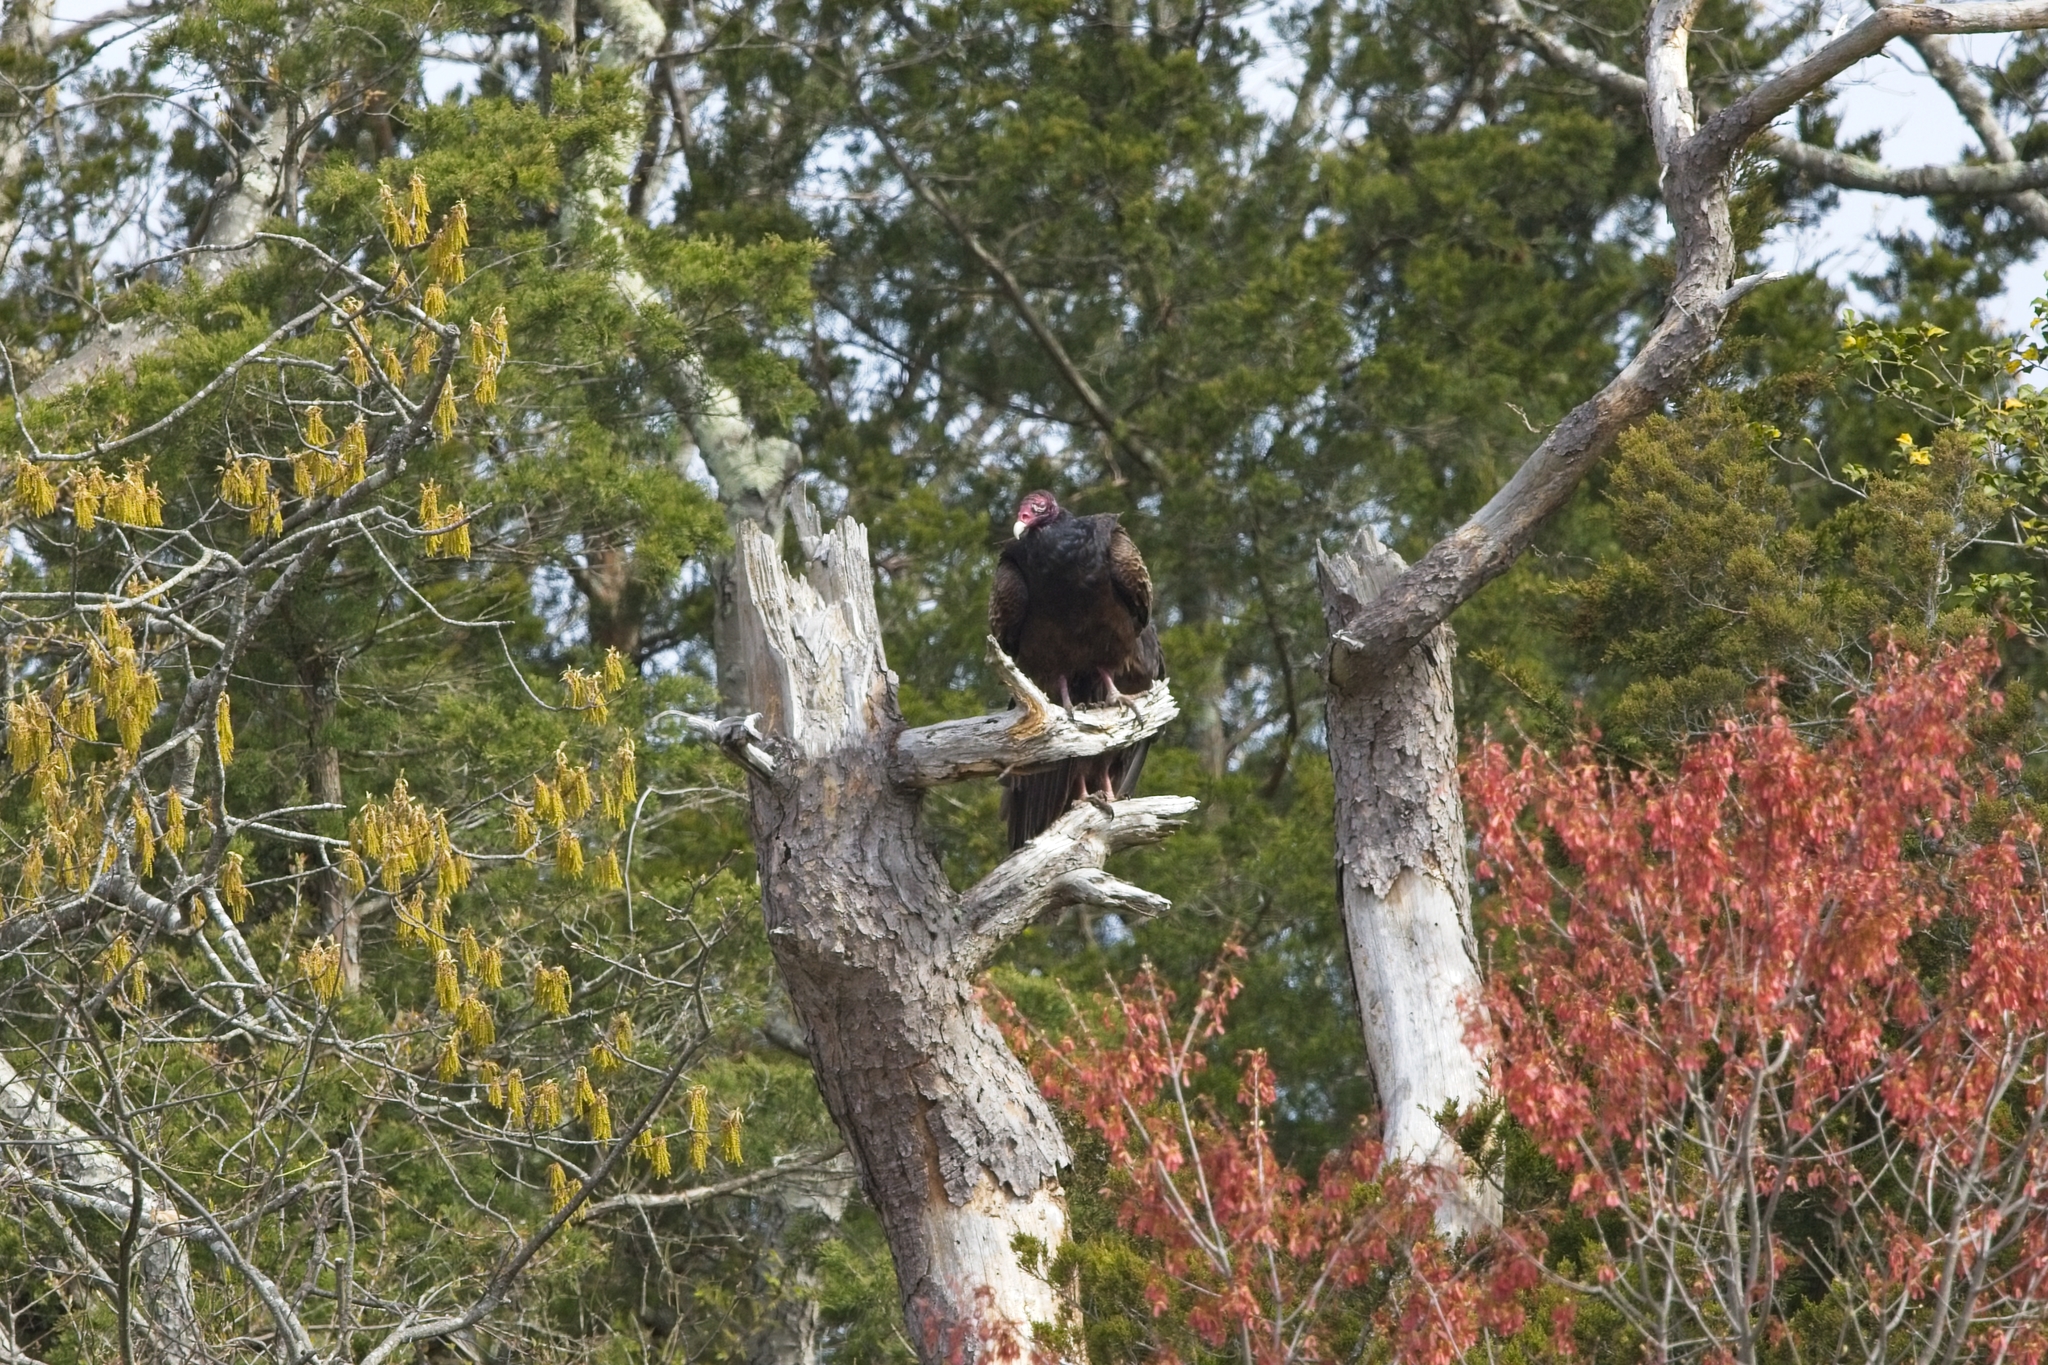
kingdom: Animalia
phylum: Chordata
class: Aves
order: Accipitriformes
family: Cathartidae
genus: Cathartes
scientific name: Cathartes aura
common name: Turkey vulture
